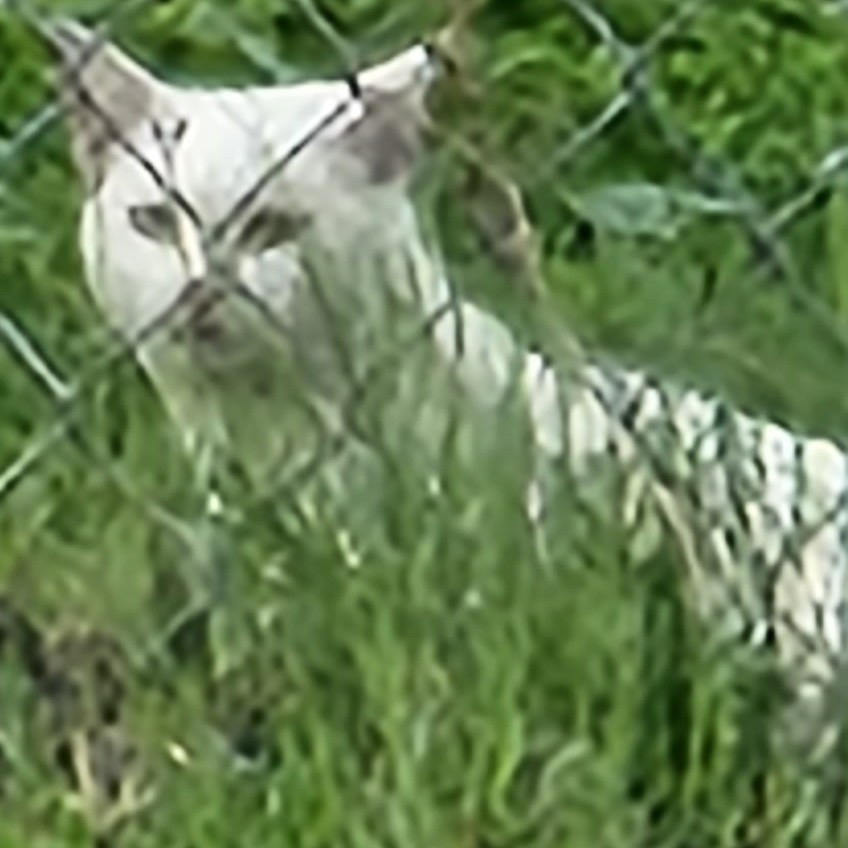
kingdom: Animalia
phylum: Chordata
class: Mammalia
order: Carnivora
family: Felidae
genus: Felis
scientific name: Felis catus
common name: Domestic cat
